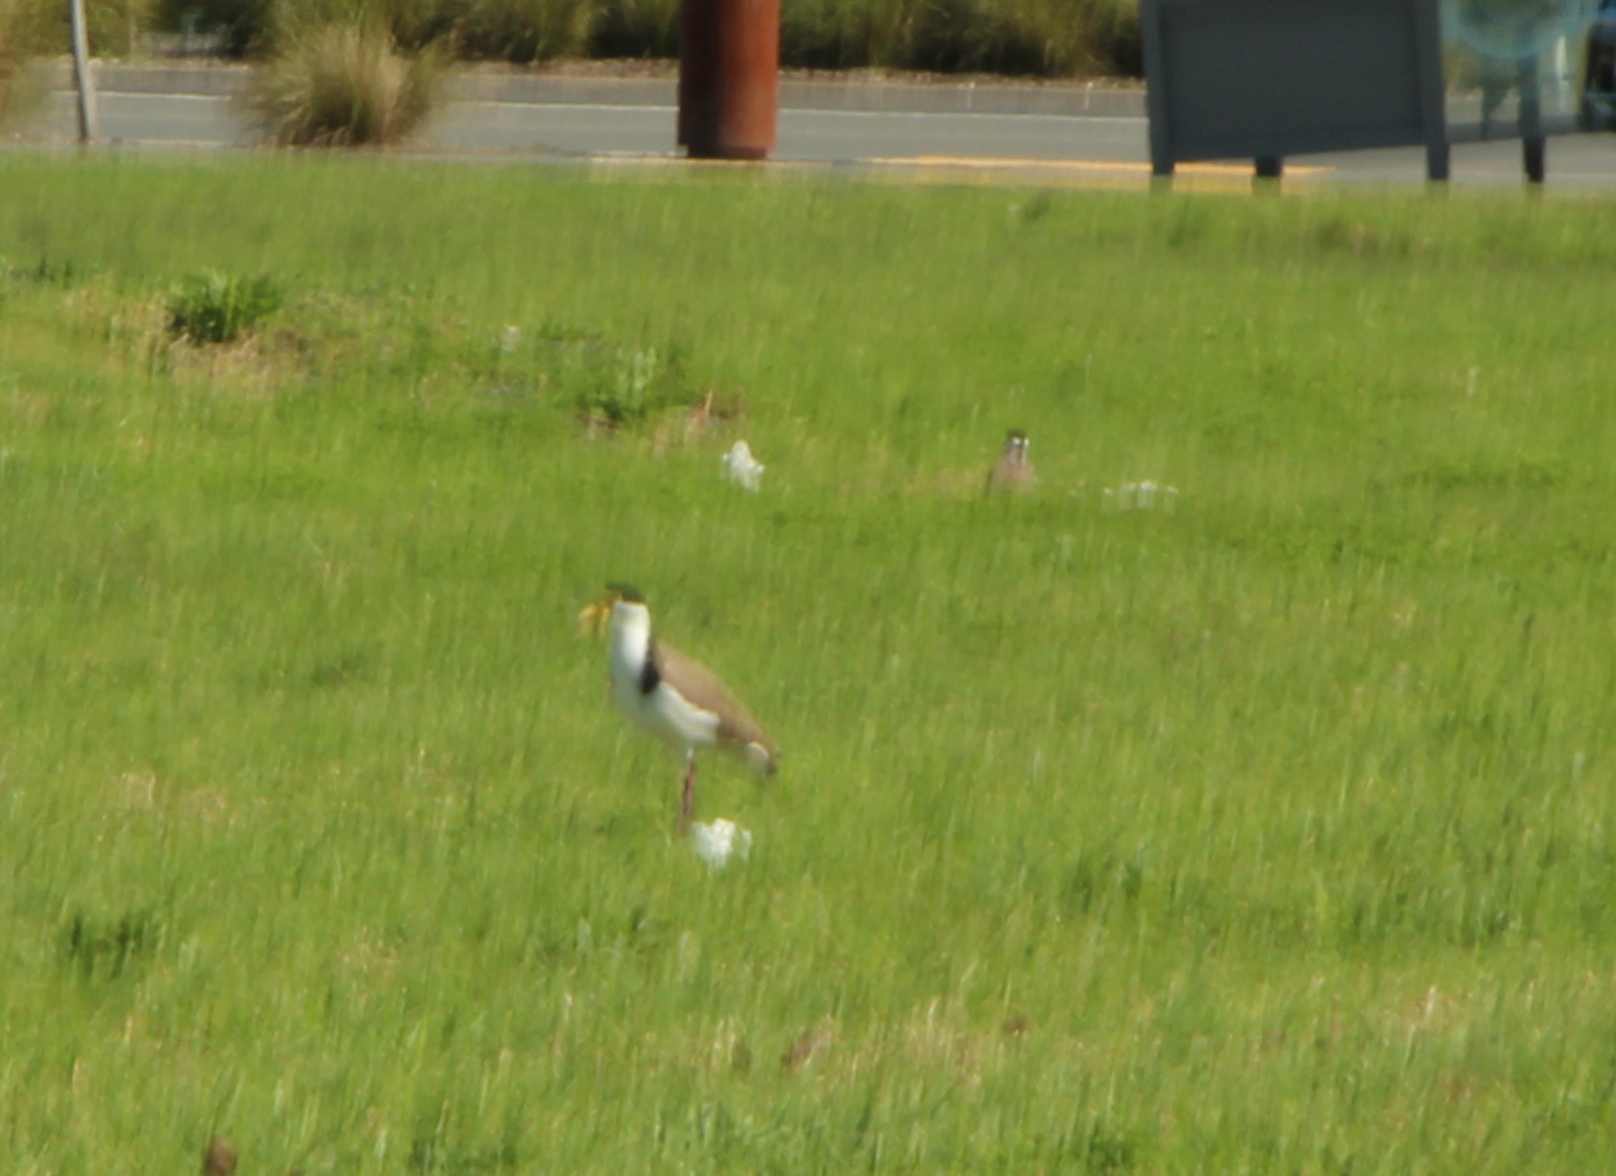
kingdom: Animalia
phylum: Chordata
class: Aves
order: Charadriiformes
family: Charadriidae
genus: Vanellus
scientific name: Vanellus miles
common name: Masked lapwing
